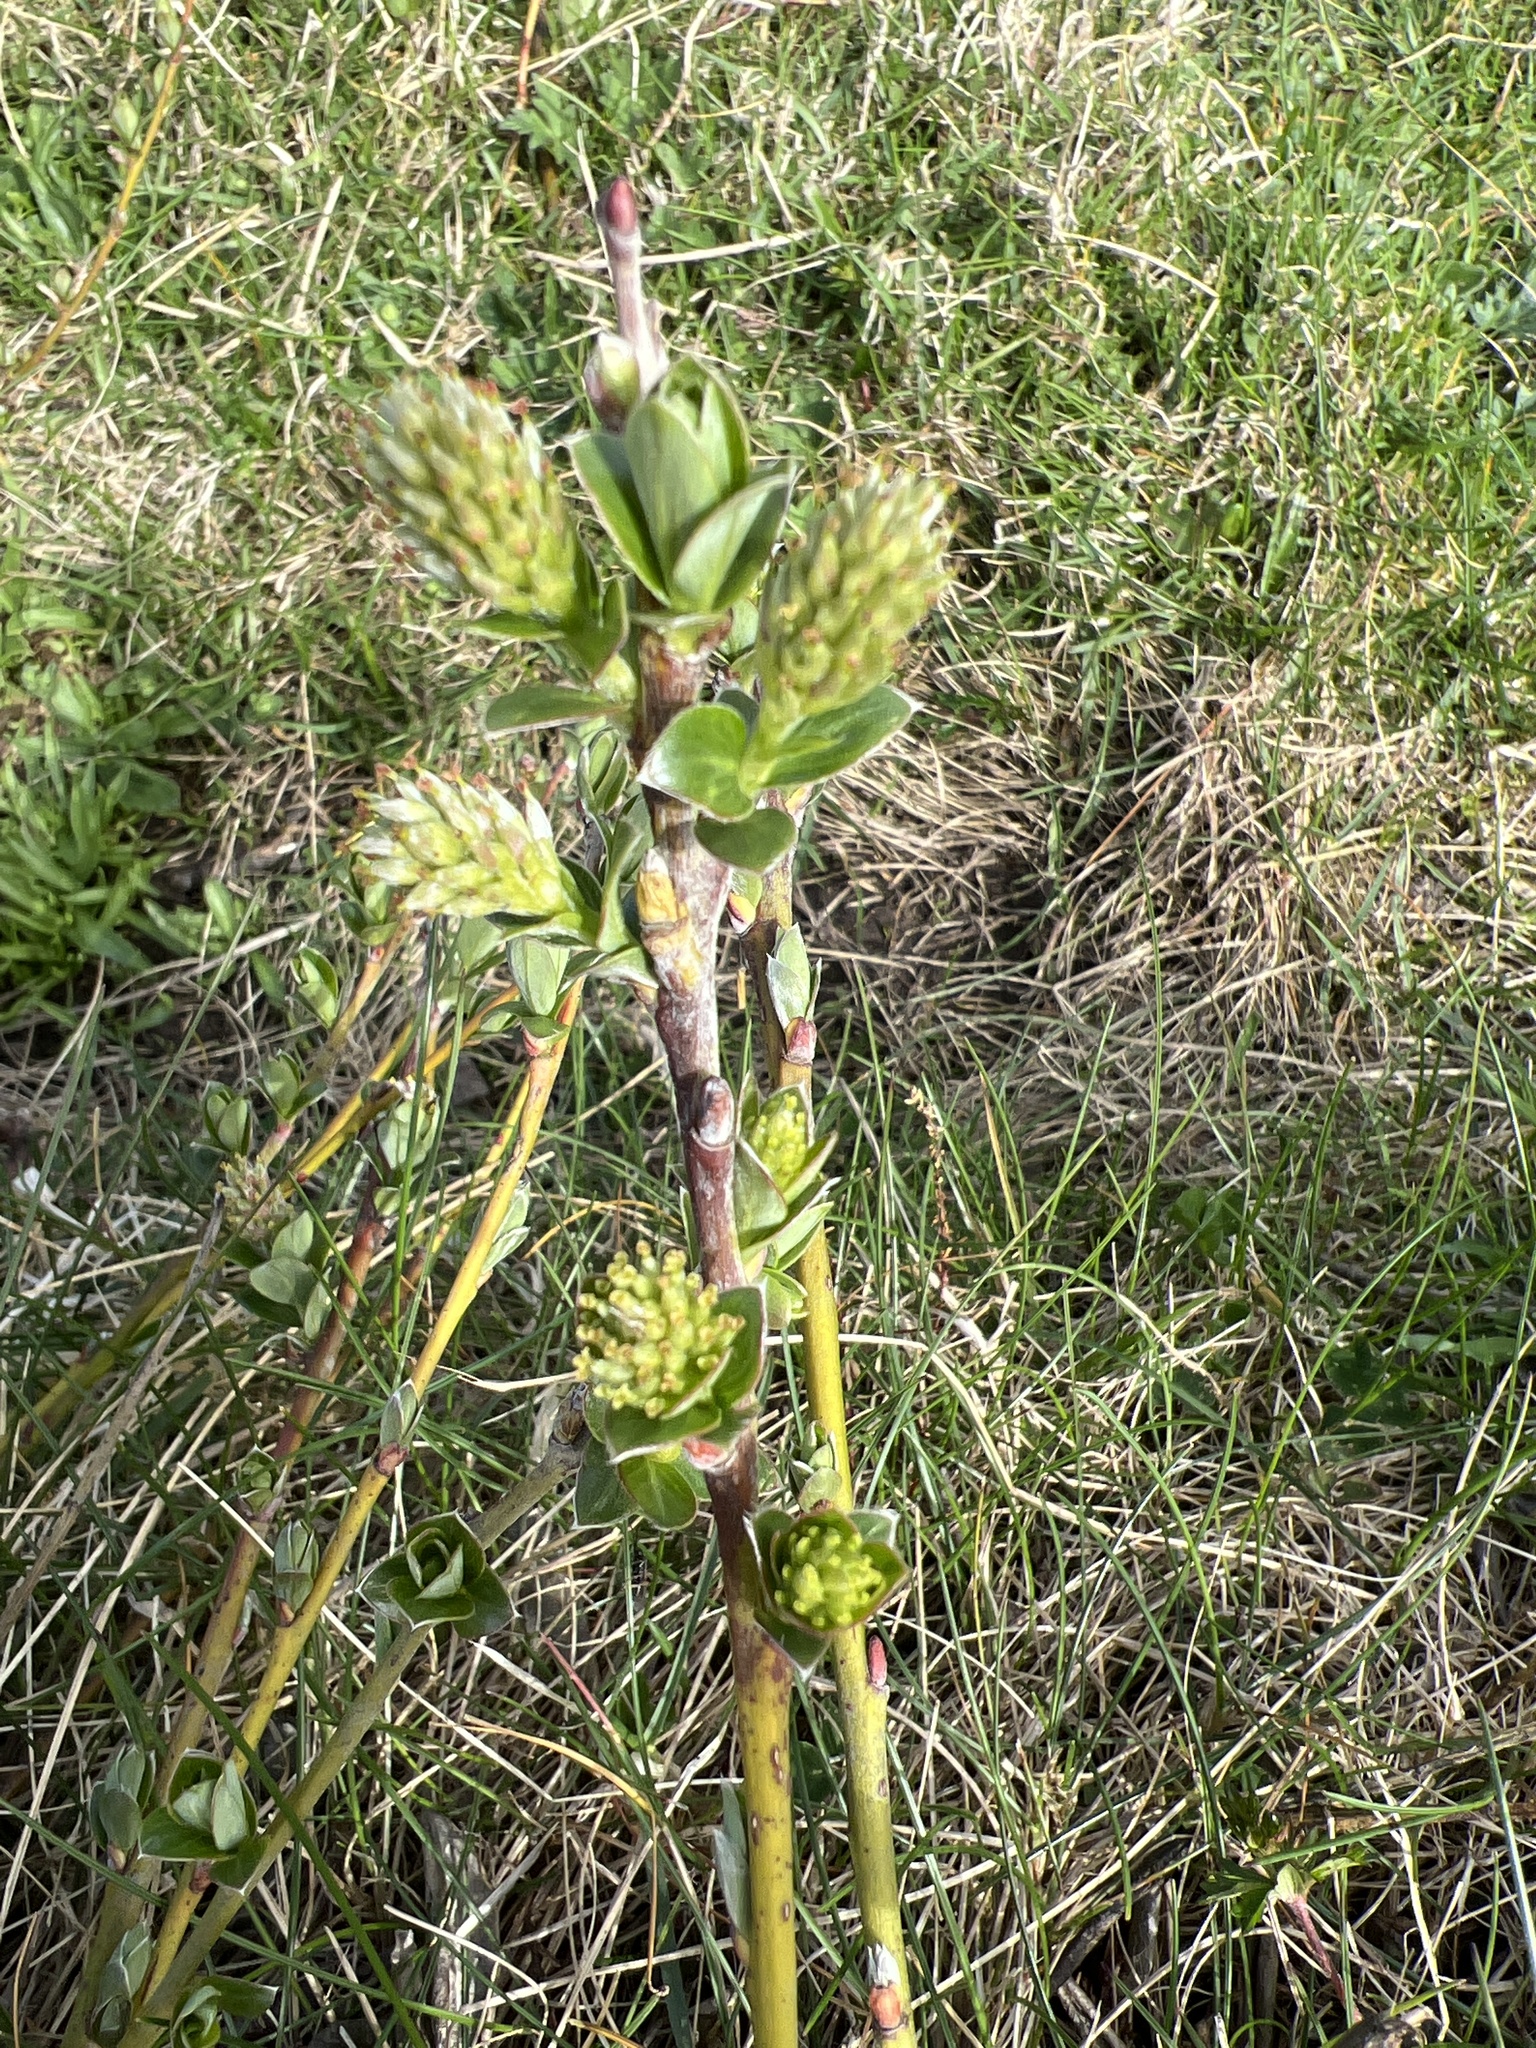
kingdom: Plantae
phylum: Tracheophyta
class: Magnoliopsida
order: Malpighiales
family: Salicaceae
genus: Salix
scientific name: Salix repens
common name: Creeping willow
